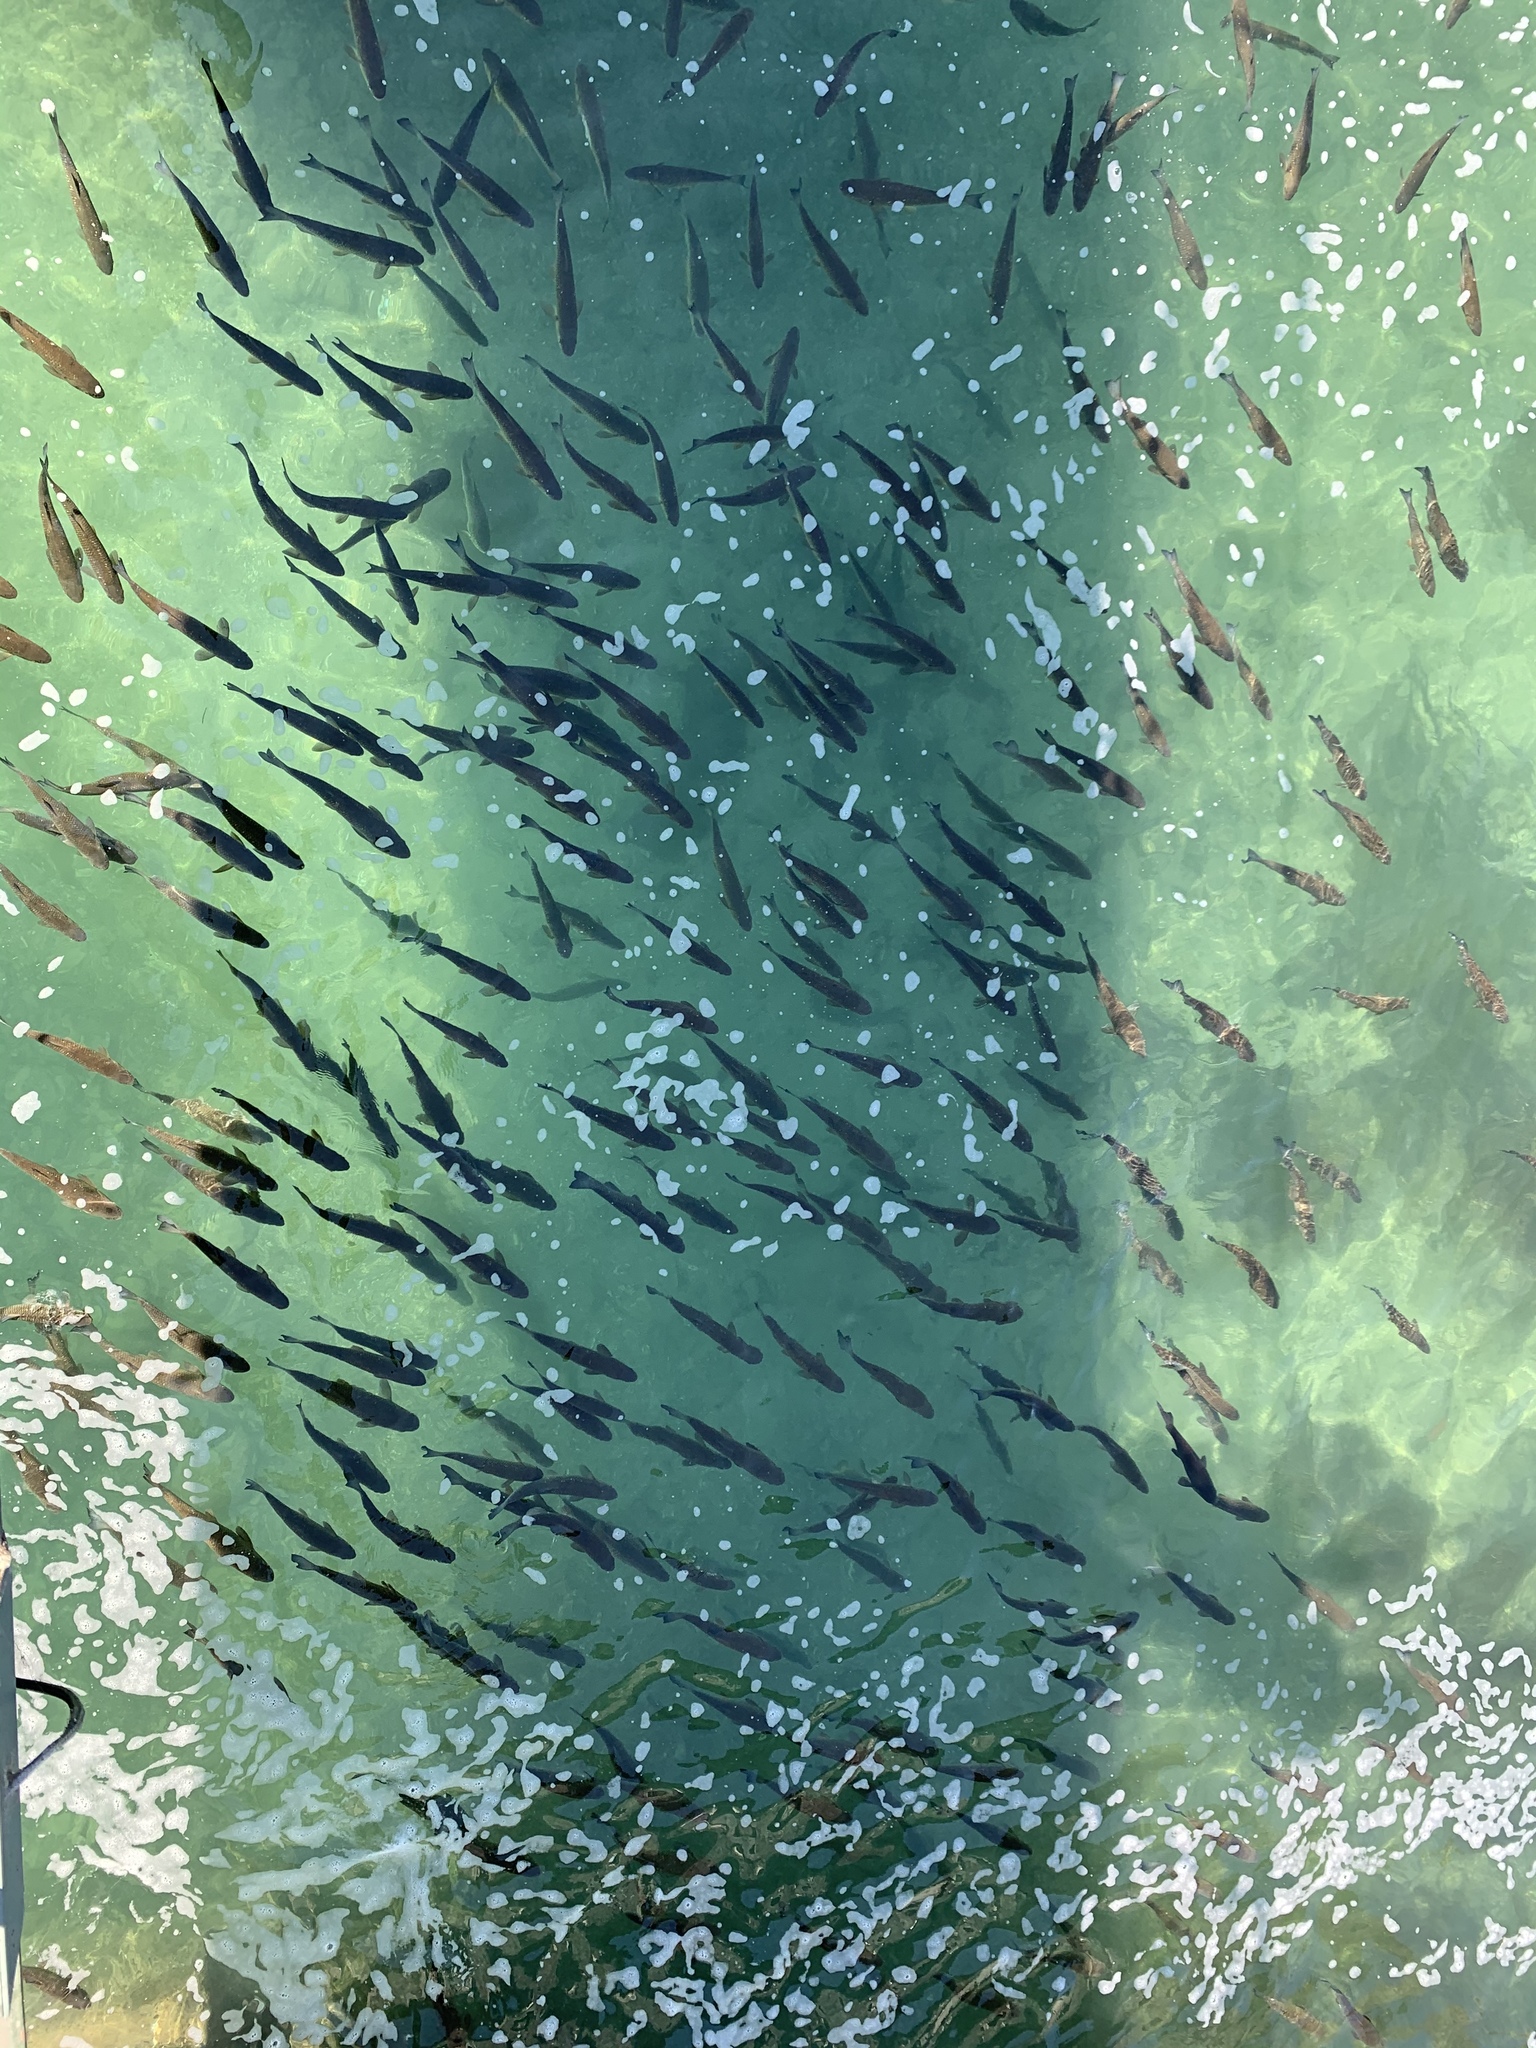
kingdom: Animalia
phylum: Chordata
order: Cypriniformes
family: Cyprinidae
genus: Squalius
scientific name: Squalius cephalus
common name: Chub
